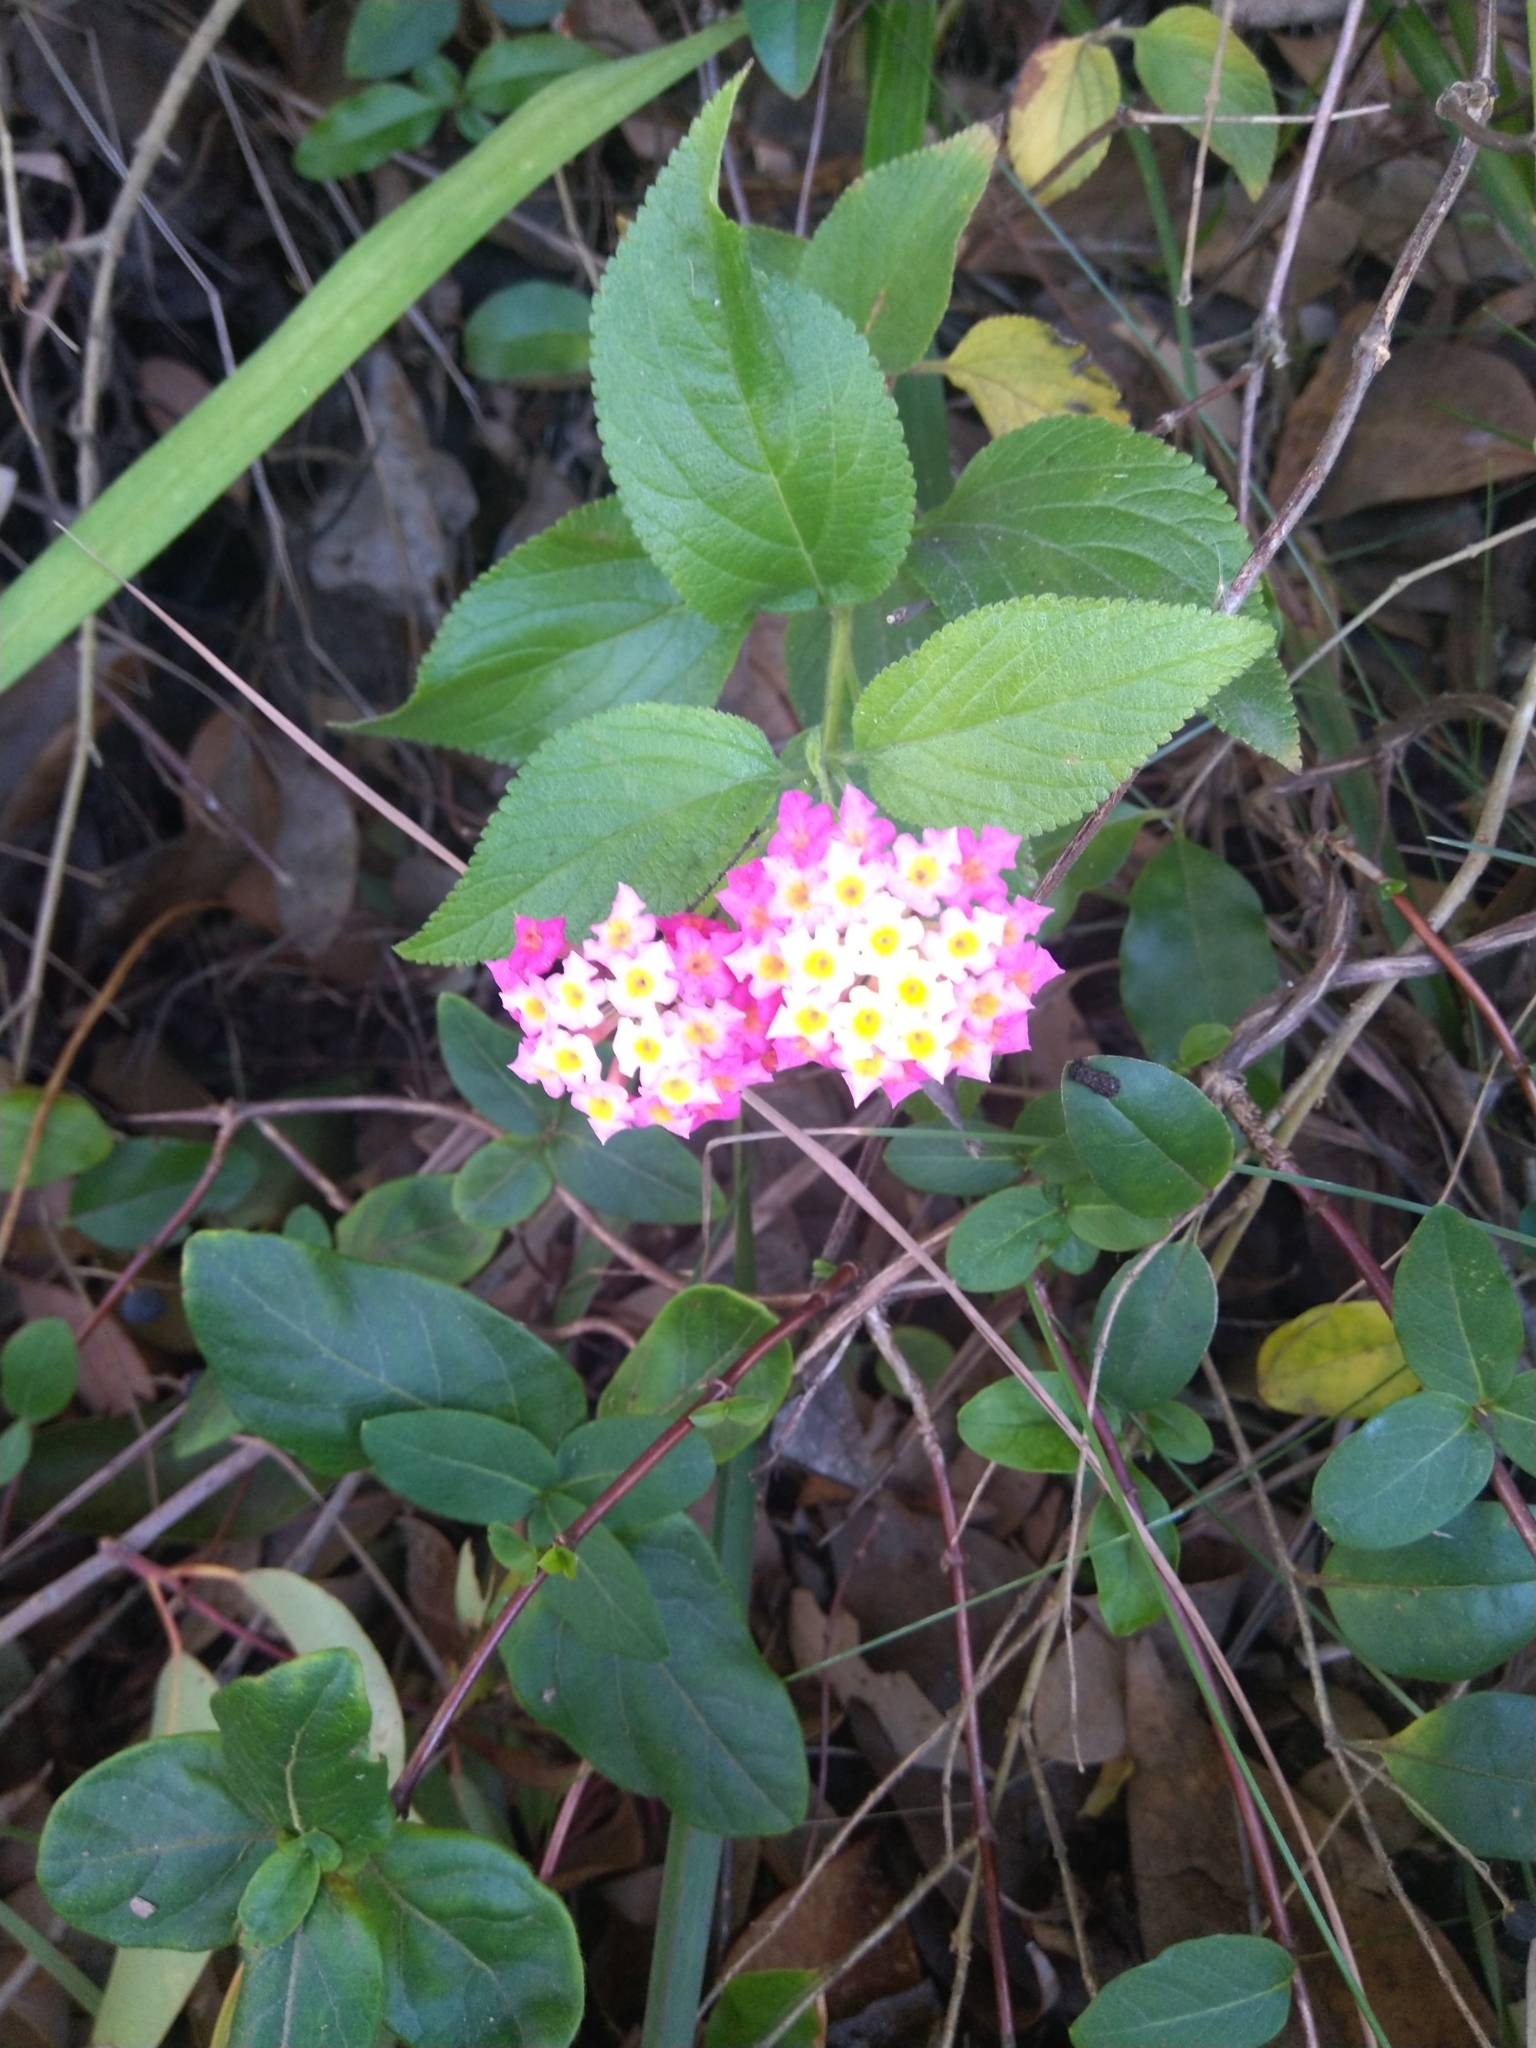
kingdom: Plantae
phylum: Tracheophyta
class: Magnoliopsida
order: Lamiales
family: Verbenaceae
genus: Lantana
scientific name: Lantana camara
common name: Lantana
